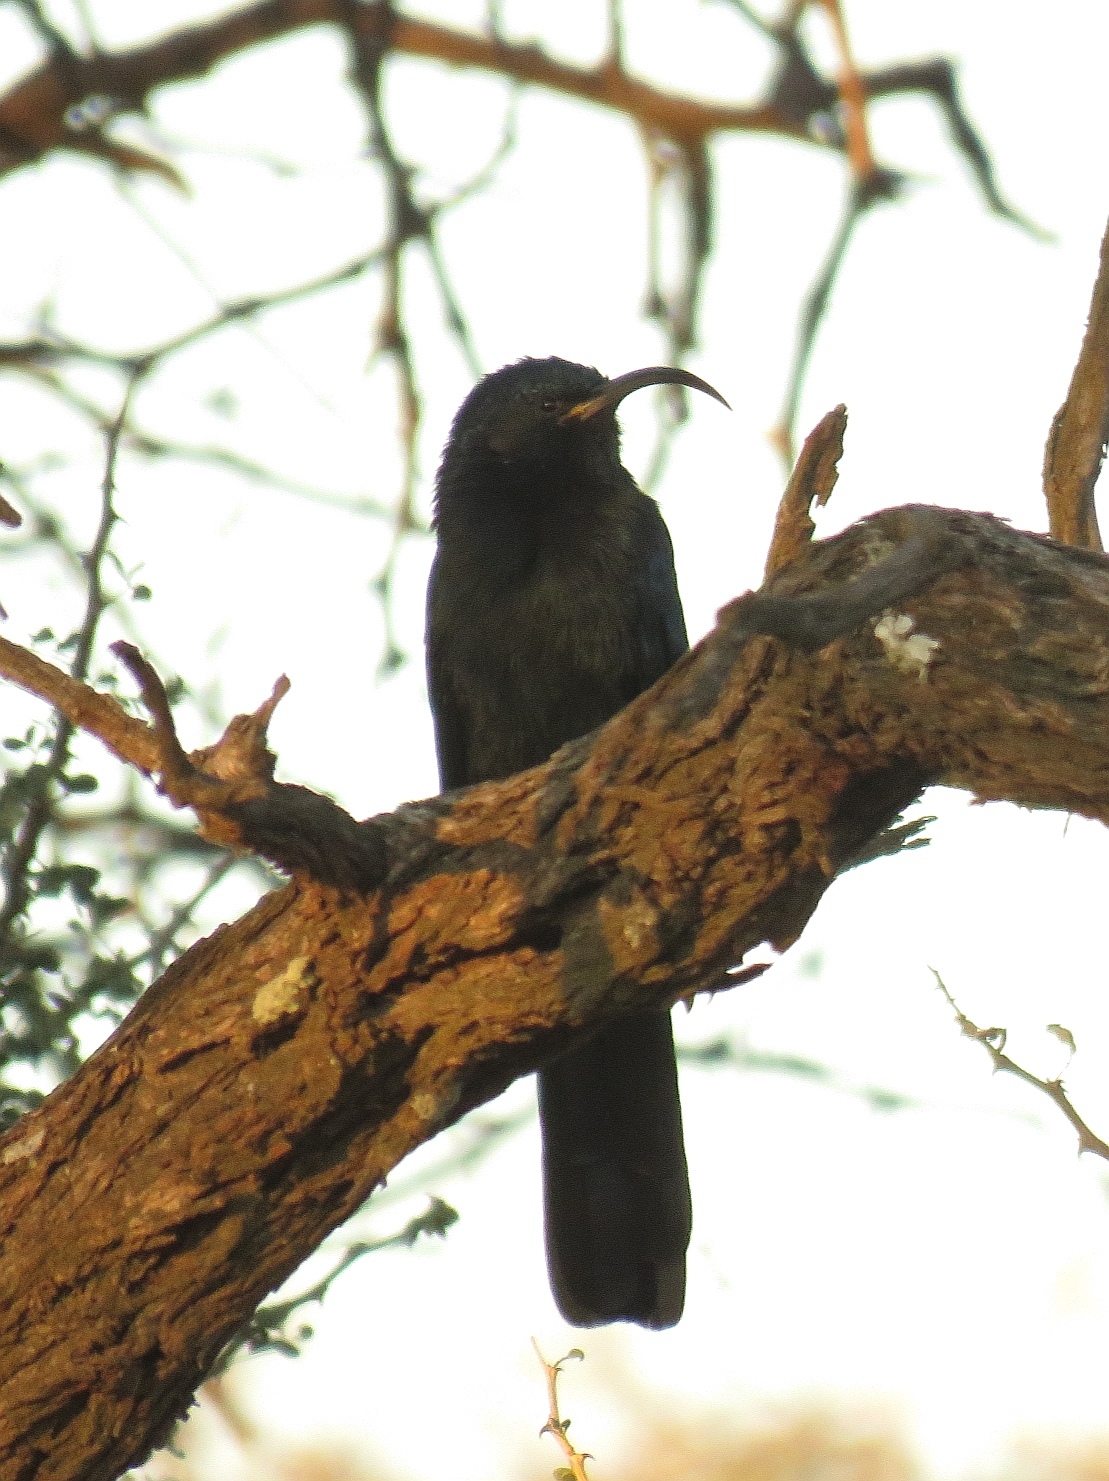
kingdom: Animalia
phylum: Chordata
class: Aves
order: Bucerotiformes
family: Phoeniculidae
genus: Rhinopomastus
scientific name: Rhinopomastus cyanomelas
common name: Common scimitarbill
